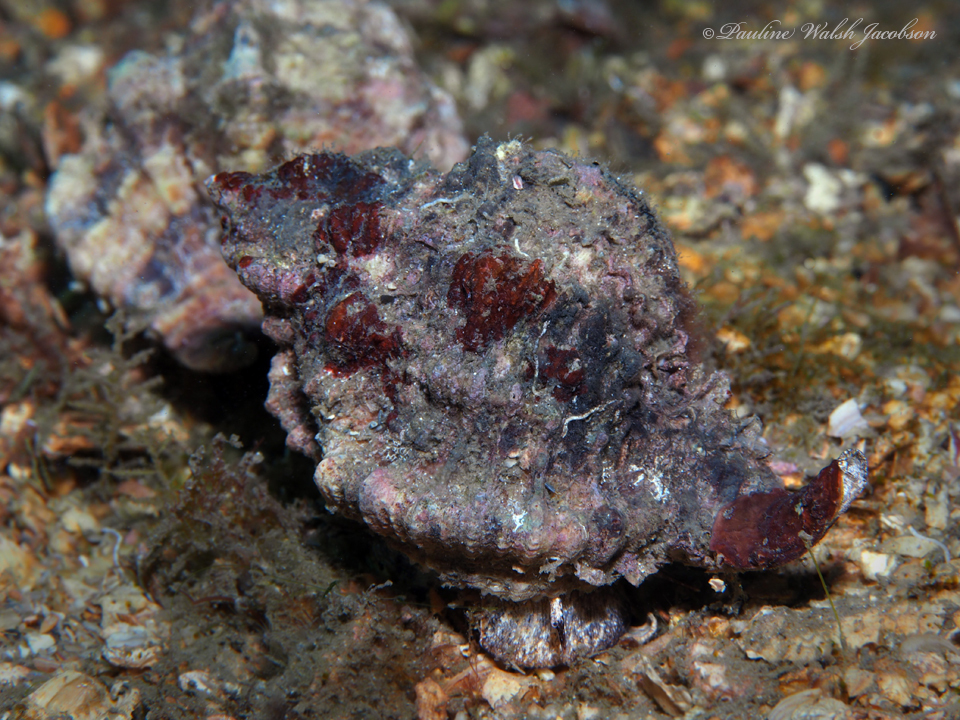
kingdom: Animalia
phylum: Mollusca
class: Gastropoda
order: Neogastropoda
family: Muricidae
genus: Phyllonotus
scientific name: Phyllonotus pomum
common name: Apple murex
